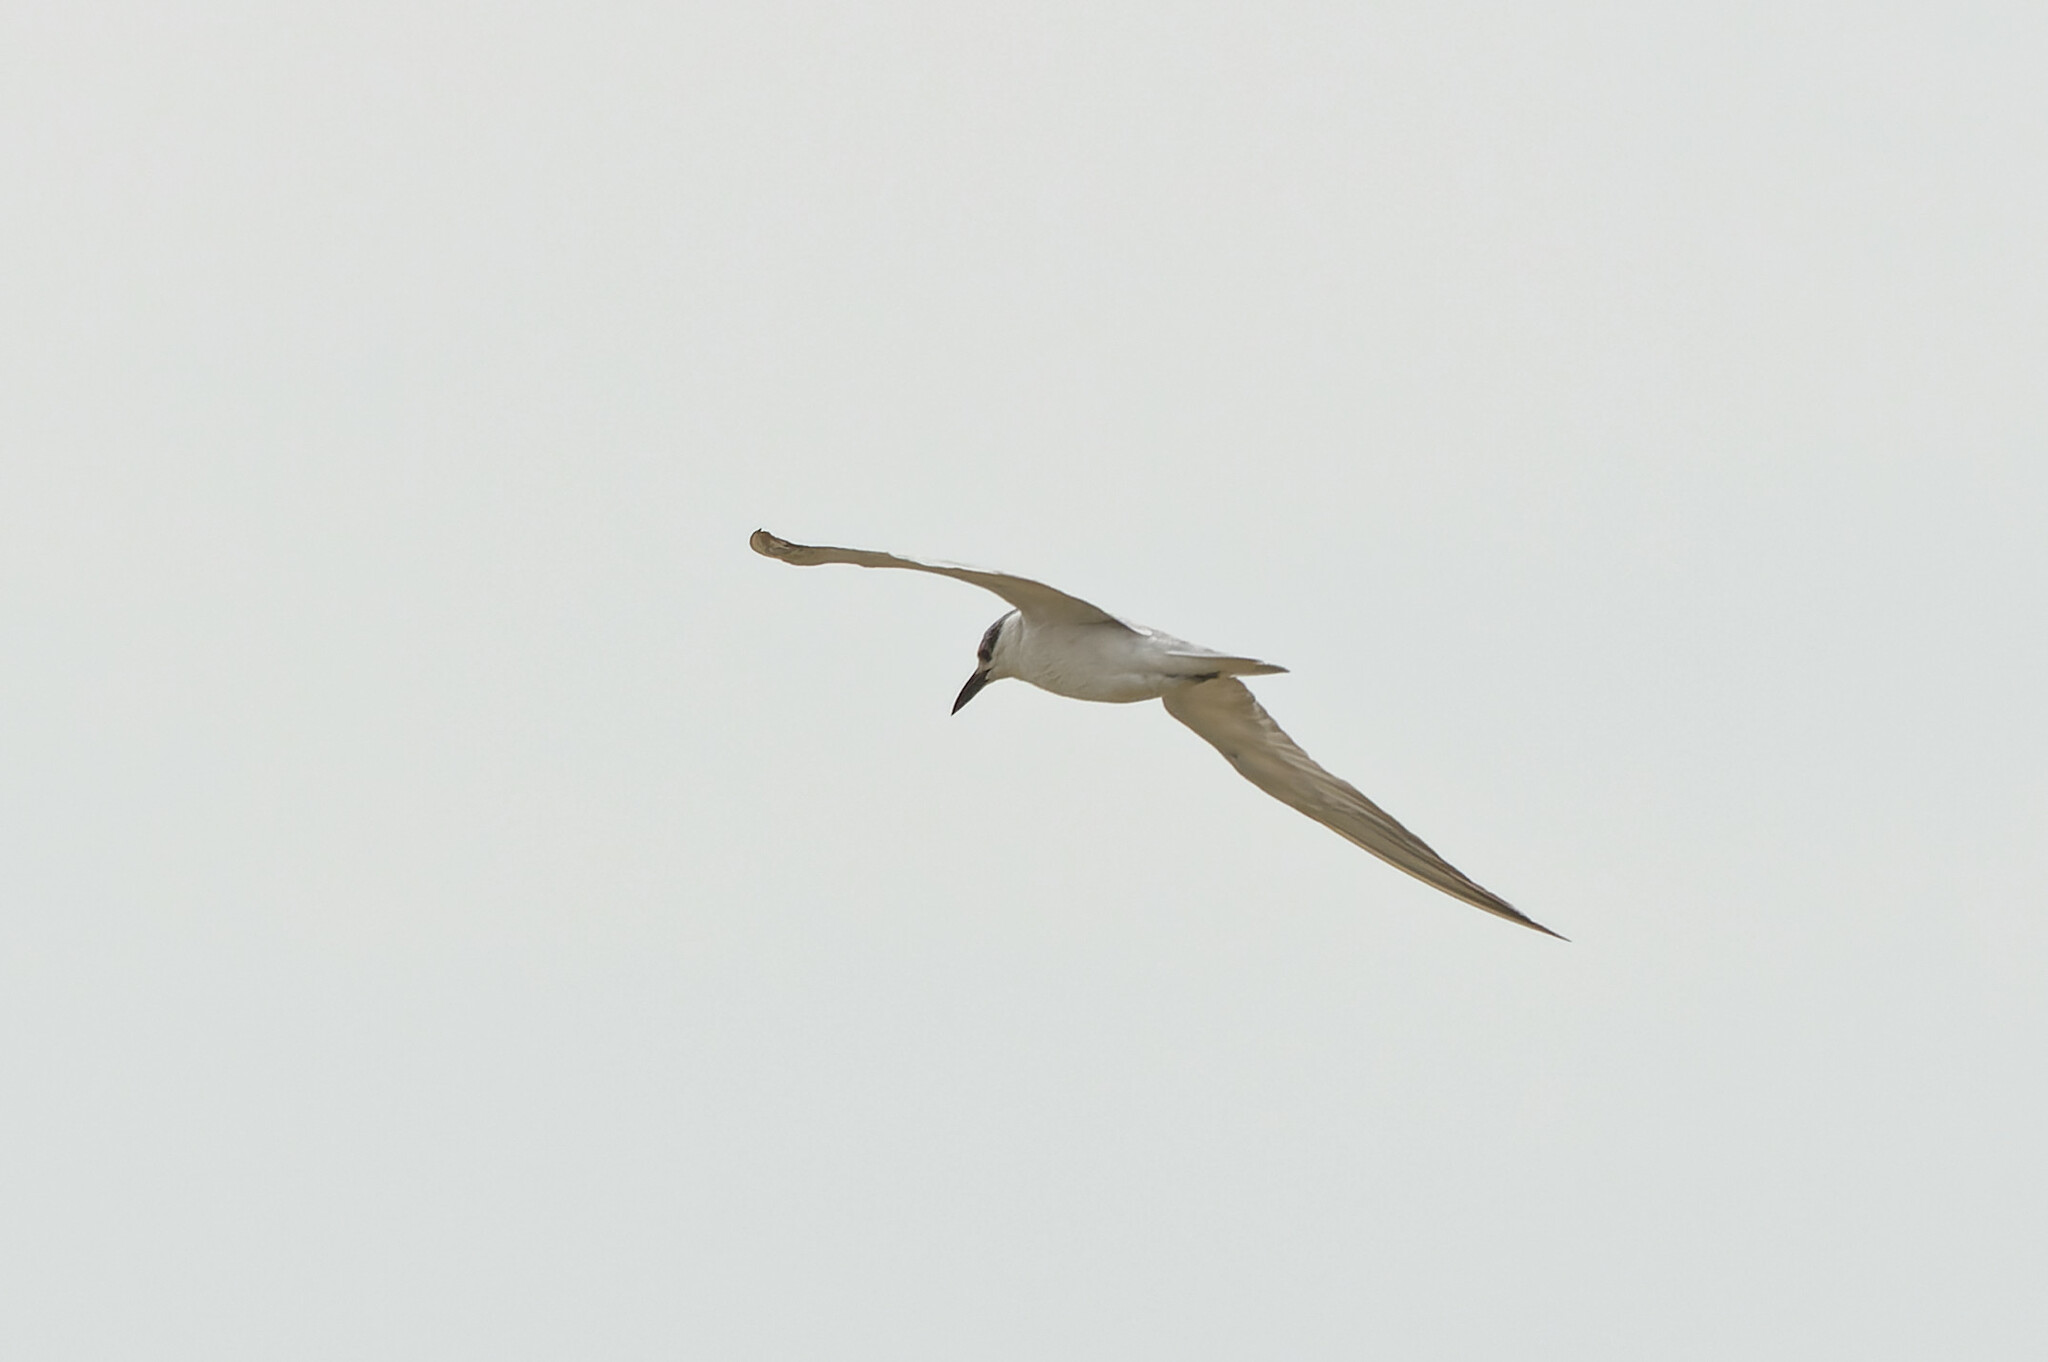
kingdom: Animalia
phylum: Chordata
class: Aves
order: Charadriiformes
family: Laridae
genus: Chlidonias
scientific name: Chlidonias hybrida
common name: Whiskered tern
